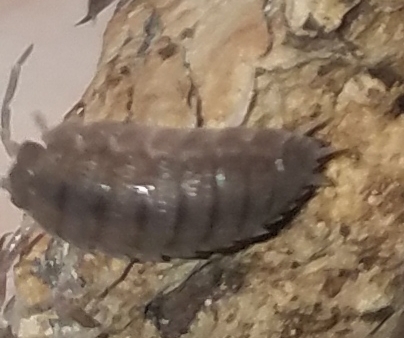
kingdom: Animalia
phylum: Arthropoda
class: Malacostraca
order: Isopoda
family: Porcellionidae
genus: Porcellio
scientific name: Porcellio scaber
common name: Common rough woodlouse
